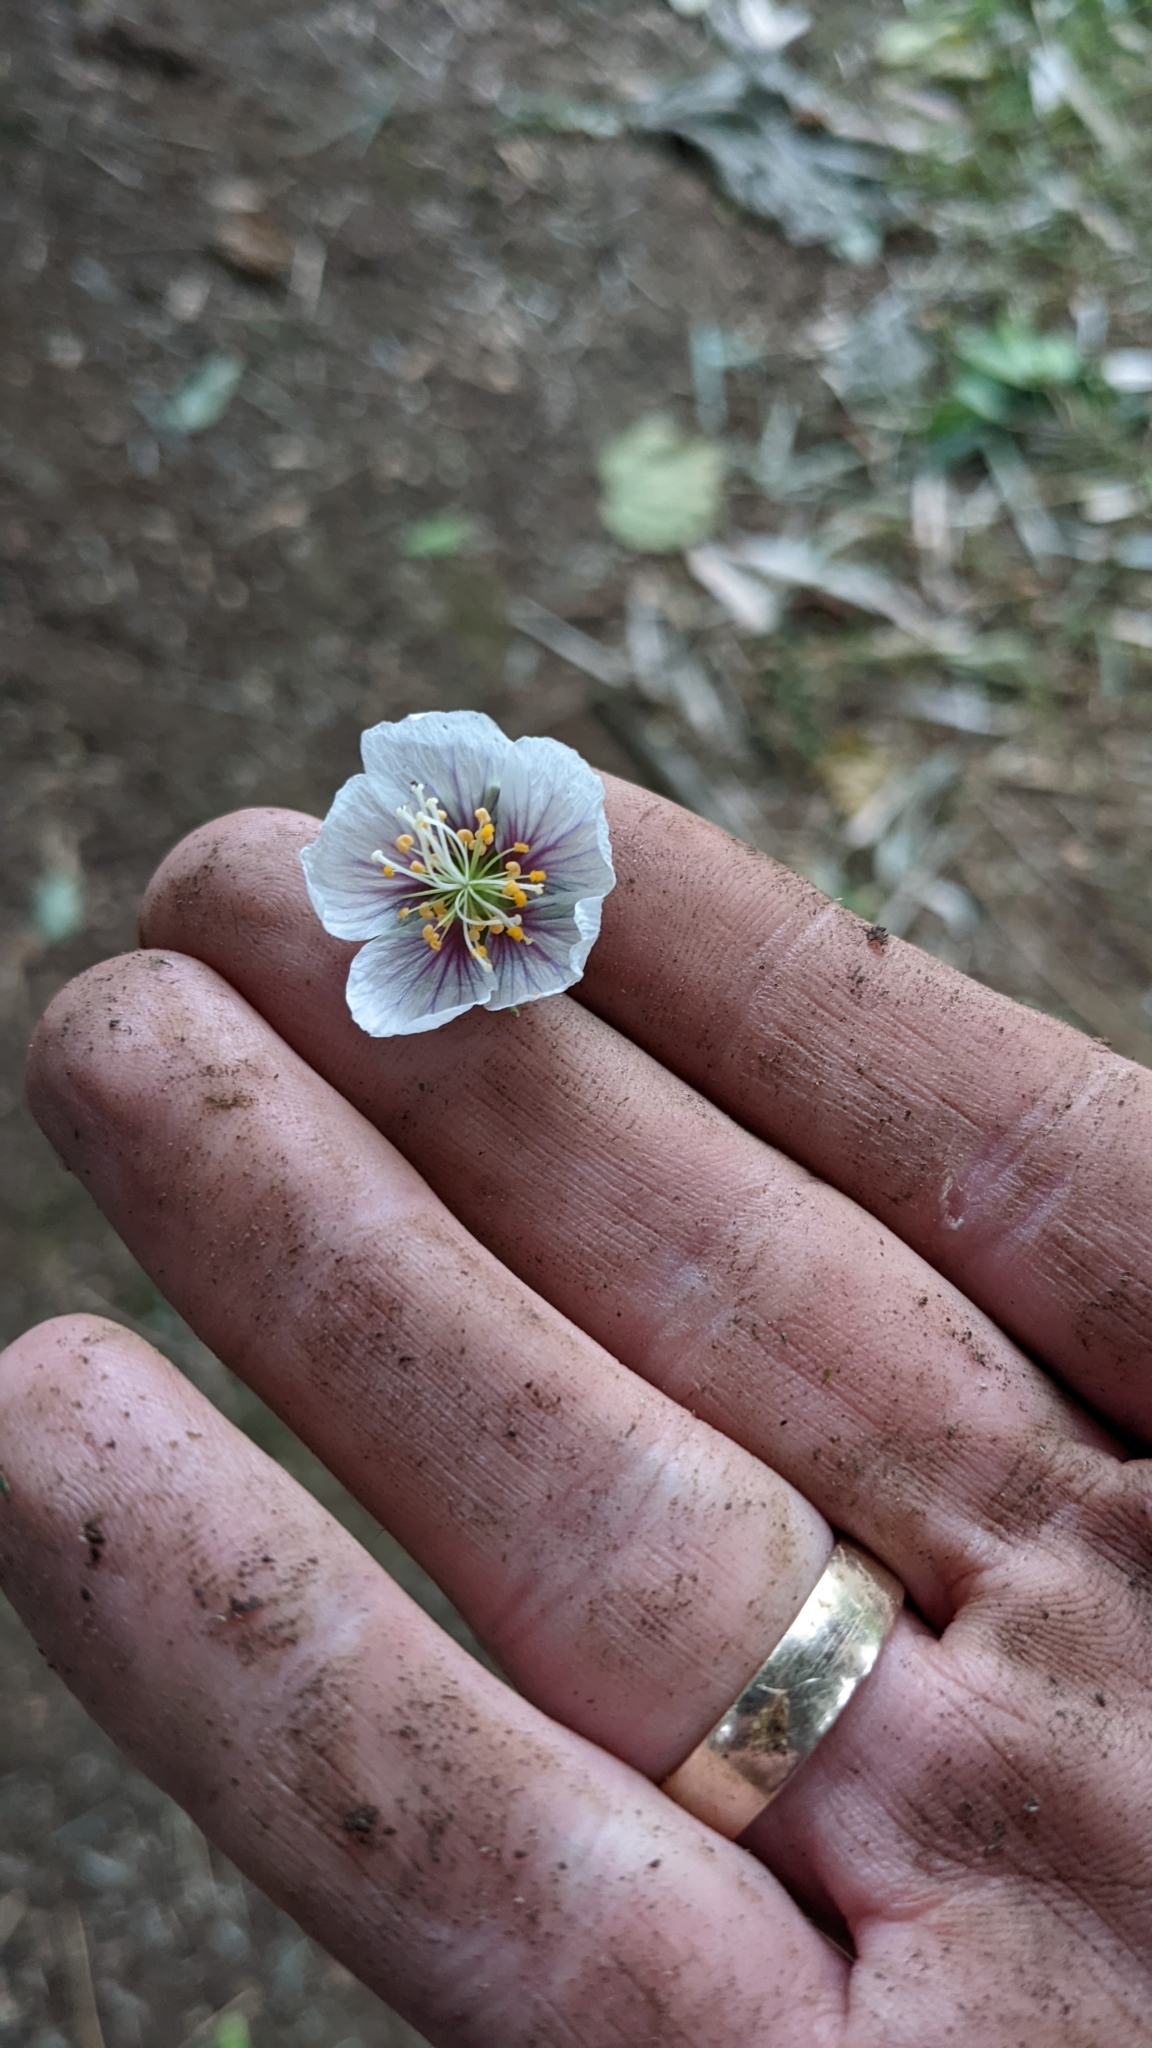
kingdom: Plantae
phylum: Tracheophyta
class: Magnoliopsida
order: Malvales
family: Malvaceae
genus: Robinsonella
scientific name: Robinsonella lindeniana
